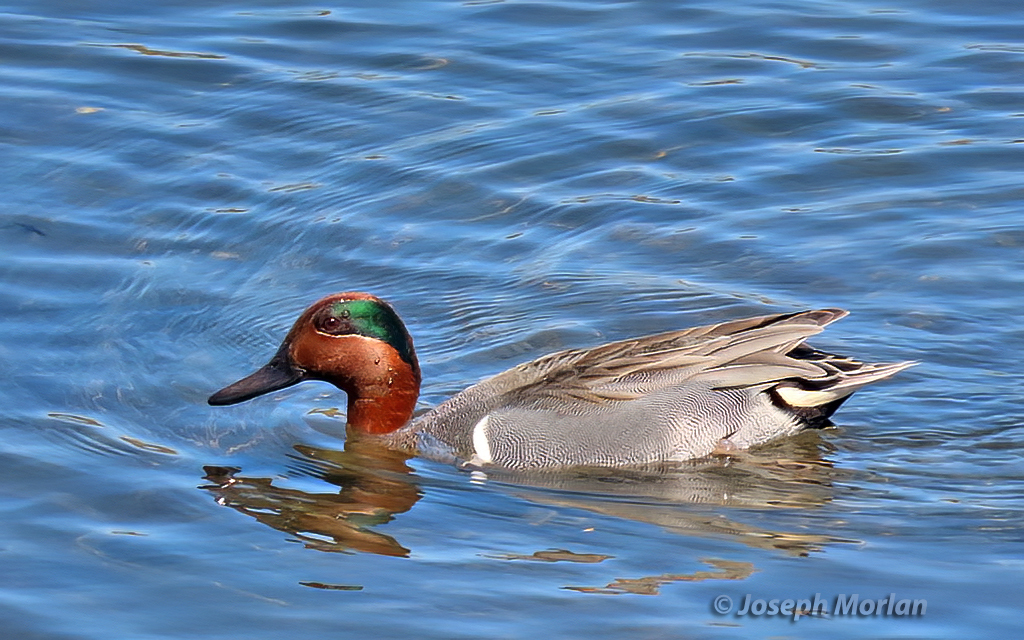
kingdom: Animalia
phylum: Chordata
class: Aves
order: Anseriformes
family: Anatidae
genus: Anas
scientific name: Anas crecca
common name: Eurasian teal
